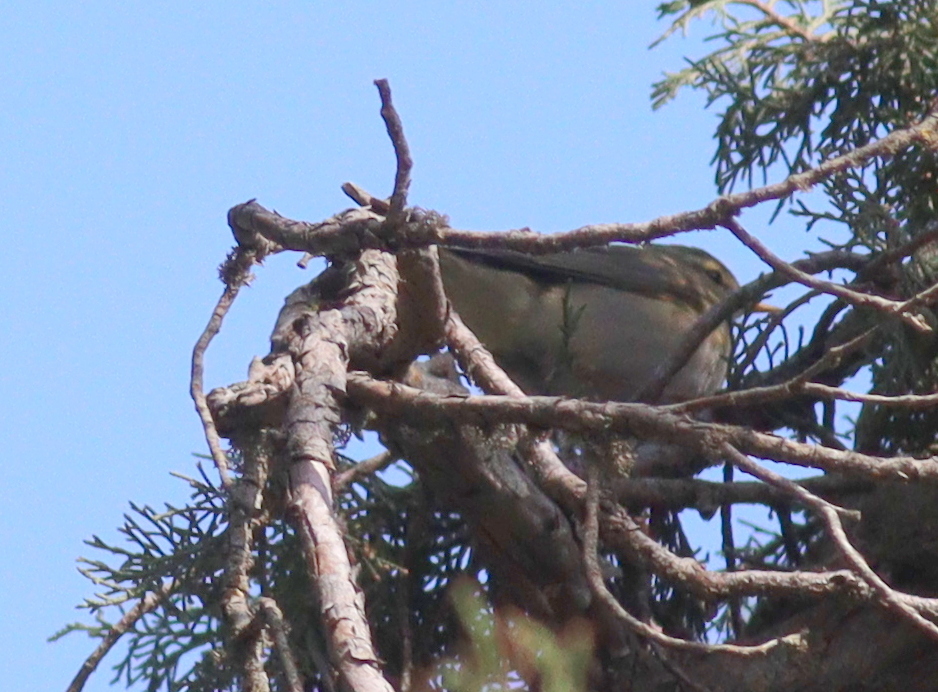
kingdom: Animalia
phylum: Chordata
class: Aves
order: Passeriformes
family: Phylloscopidae
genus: Phylloscopus
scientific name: Phylloscopus collybita
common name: Common chiffchaff
